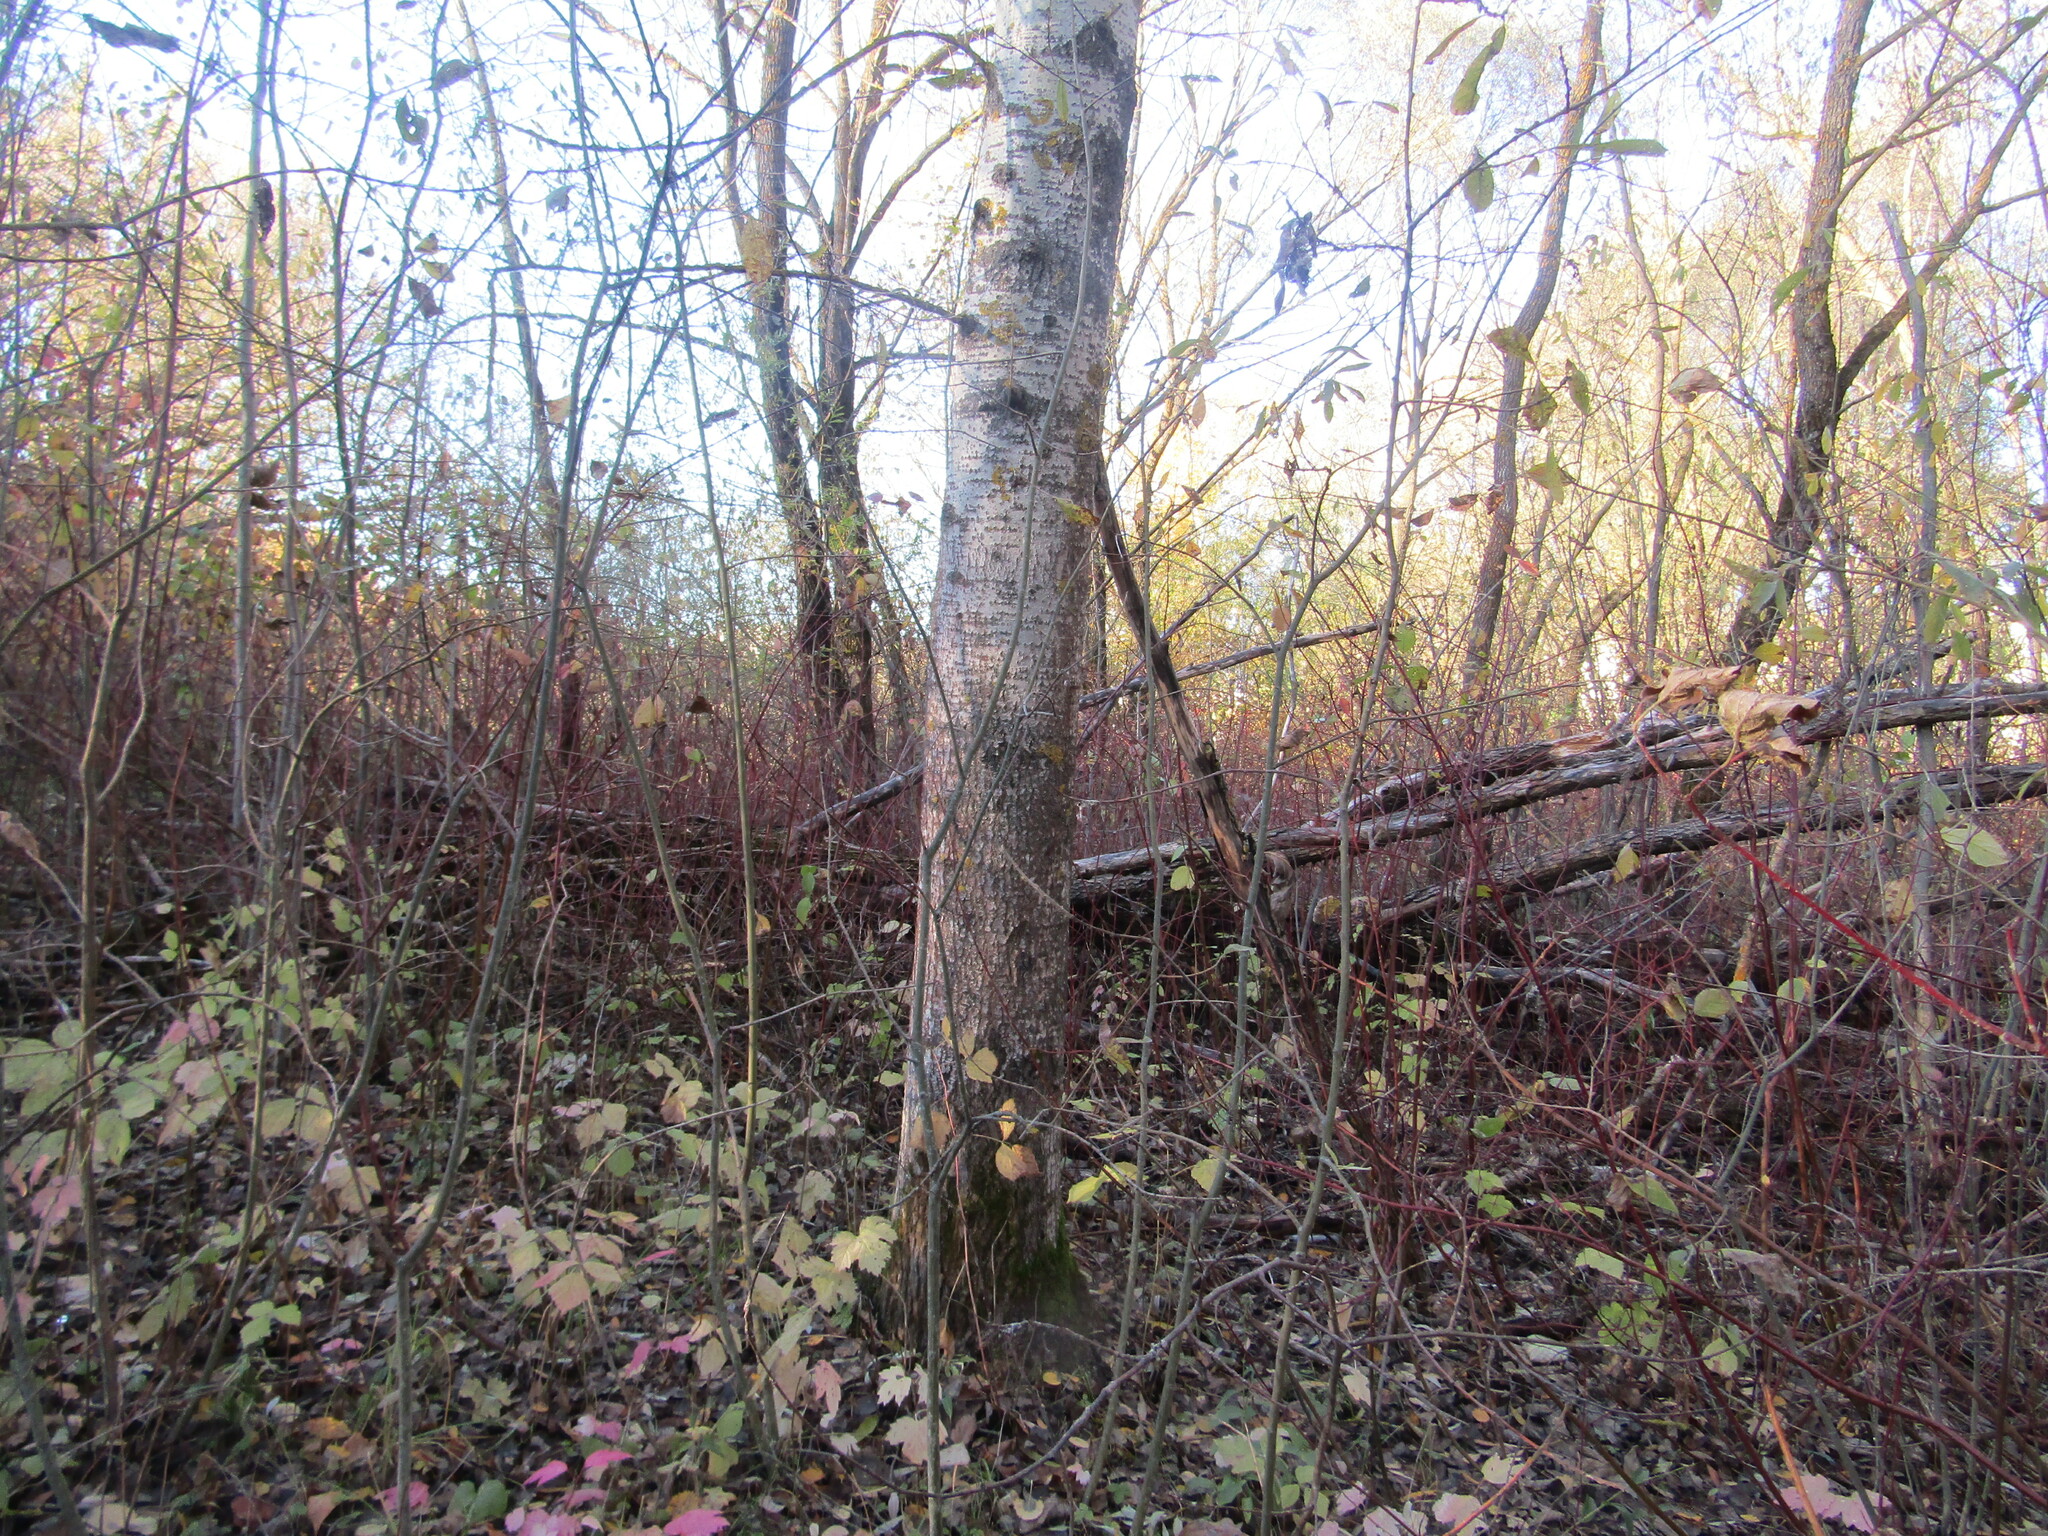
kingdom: Plantae
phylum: Tracheophyta
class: Magnoliopsida
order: Malpighiales
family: Salicaceae
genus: Populus
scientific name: Populus tremula
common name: European aspen
